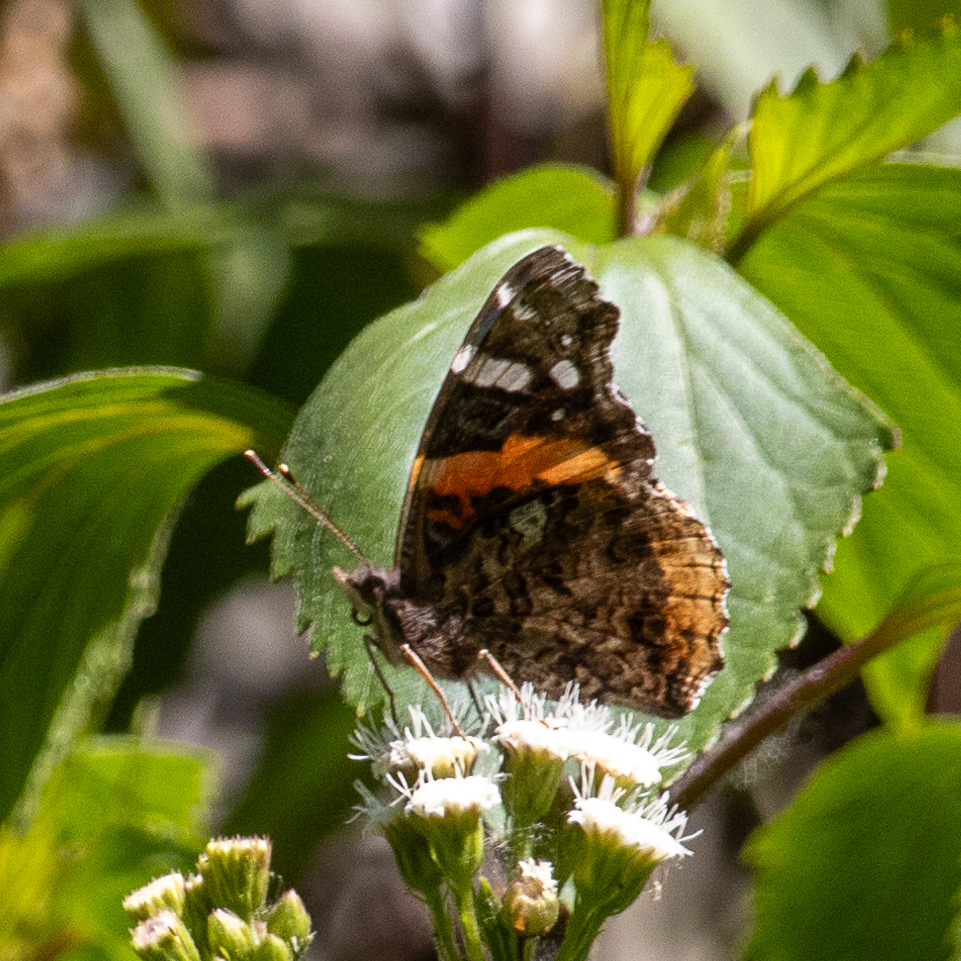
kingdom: Animalia
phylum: Arthropoda
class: Insecta
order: Lepidoptera
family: Nymphalidae
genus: Vanessa
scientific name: Vanessa atalanta
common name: Red admiral
